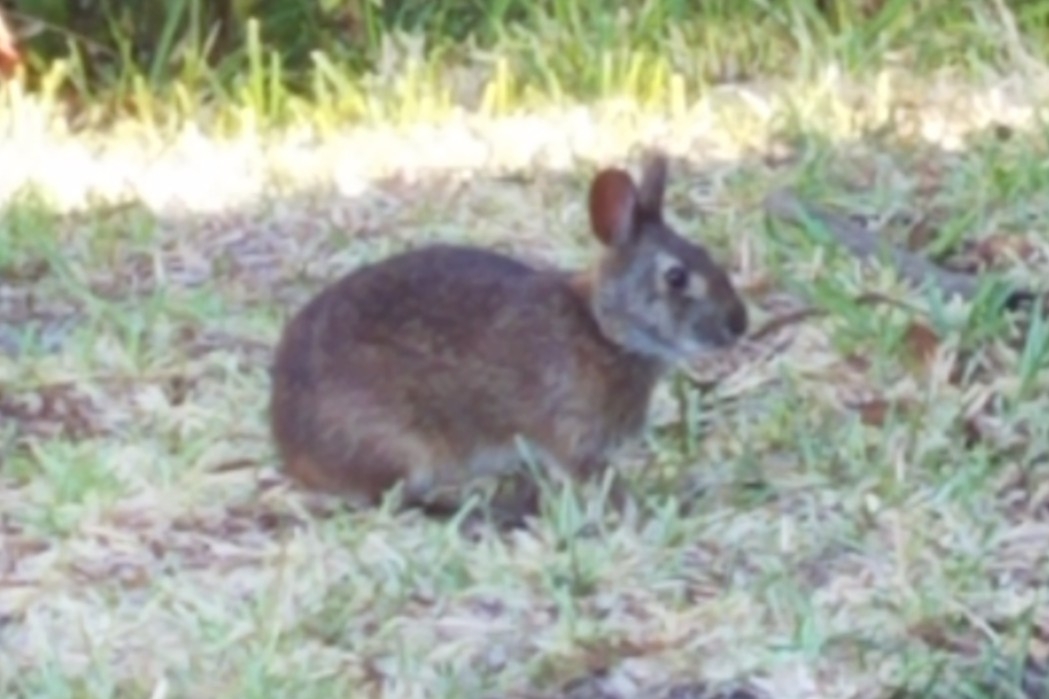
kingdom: Animalia
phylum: Chordata
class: Mammalia
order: Lagomorpha
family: Leporidae
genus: Sylvilagus
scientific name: Sylvilagus palustris
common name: Marsh rabbit
